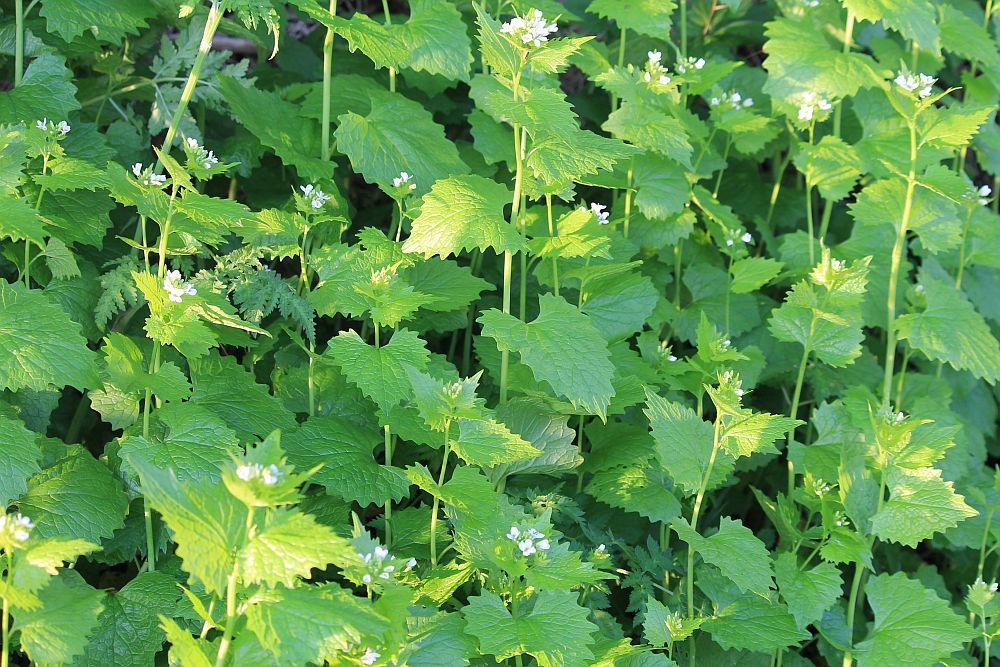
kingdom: Plantae
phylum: Tracheophyta
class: Magnoliopsida
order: Brassicales
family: Brassicaceae
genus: Alliaria
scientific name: Alliaria petiolata
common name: Garlic mustard
